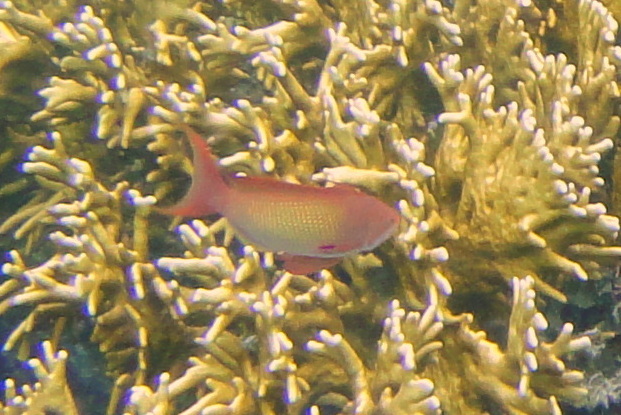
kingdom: Animalia
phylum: Chordata
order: Perciformes
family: Serranidae
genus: Pseudanthias
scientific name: Pseudanthias squamipinnis
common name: Scalefin anthias
